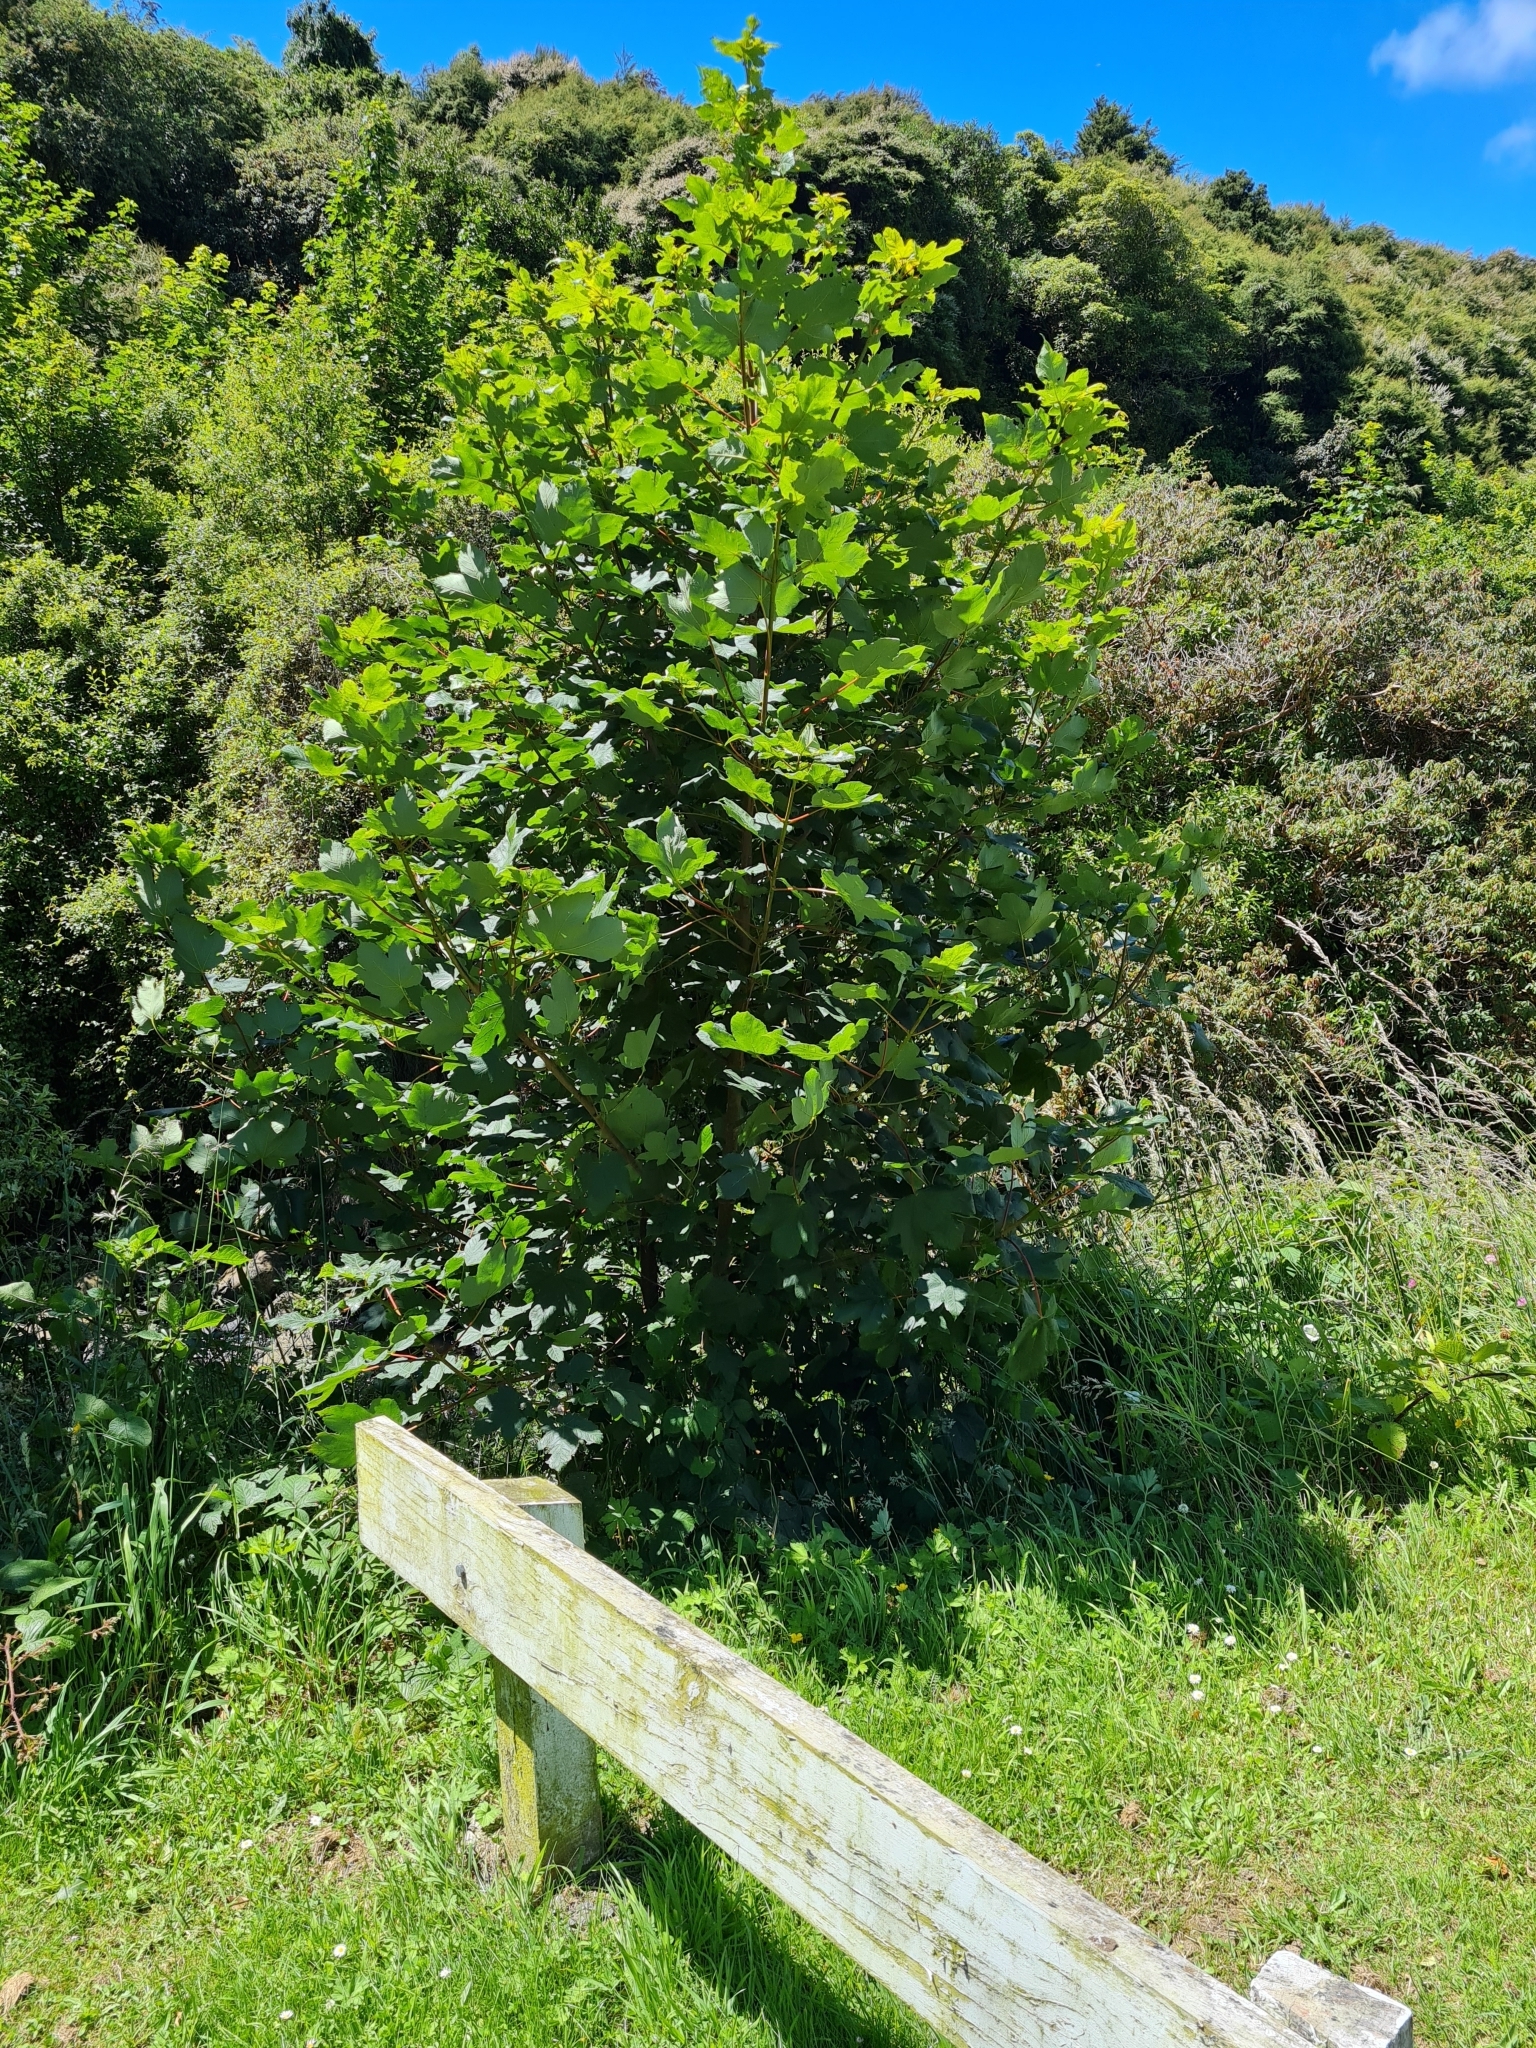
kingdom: Plantae
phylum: Tracheophyta
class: Magnoliopsida
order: Sapindales
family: Sapindaceae
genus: Acer
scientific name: Acer pseudoplatanus
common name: Sycamore
